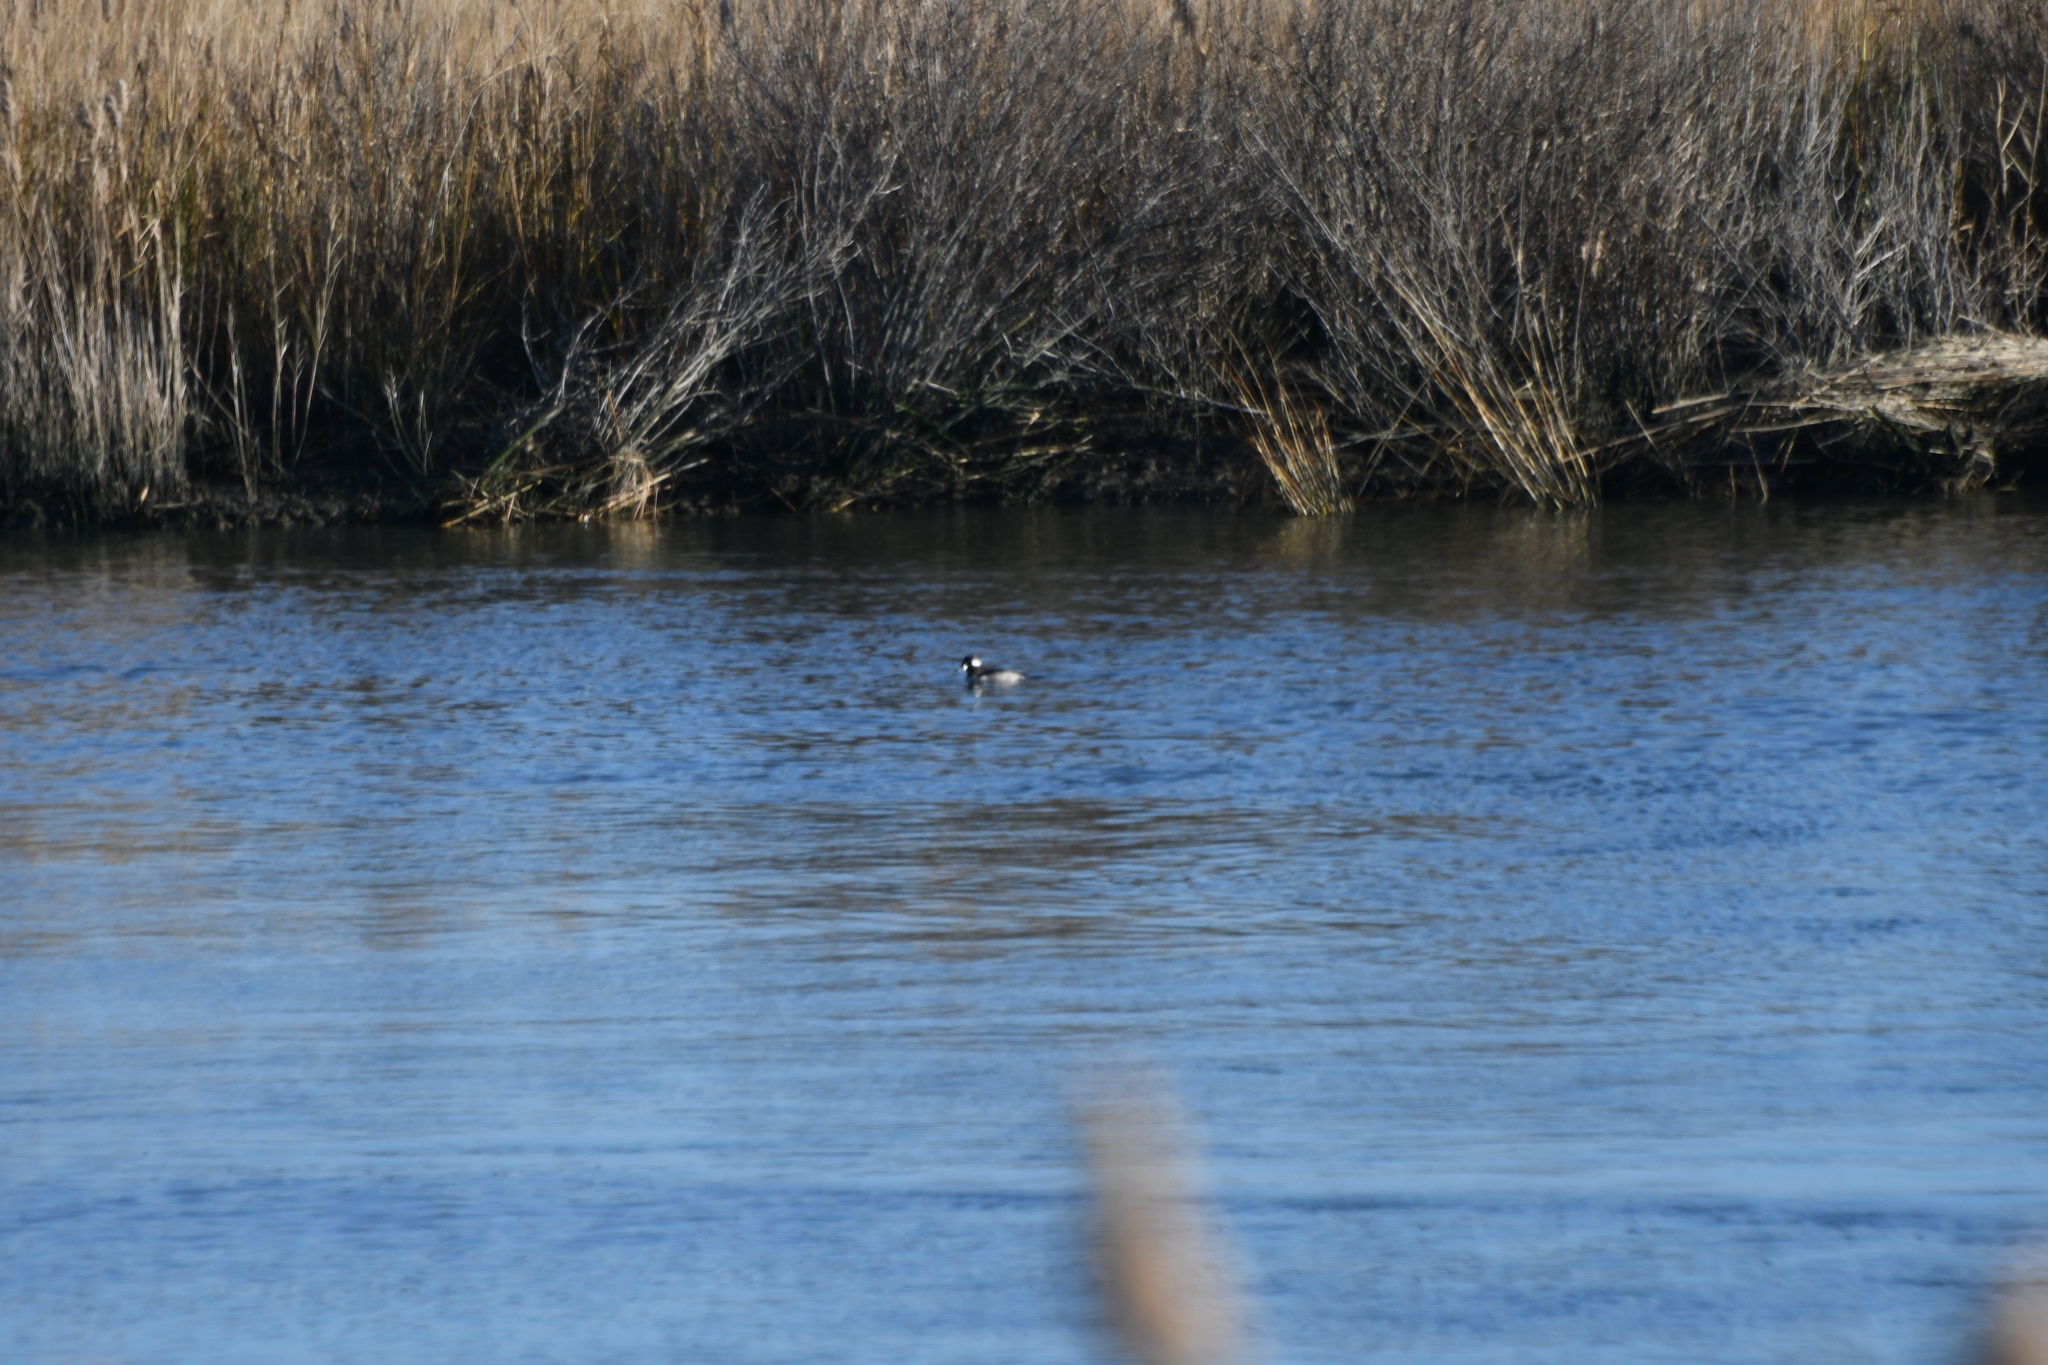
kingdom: Animalia
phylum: Chordata
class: Aves
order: Anseriformes
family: Anatidae
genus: Bucephala
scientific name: Bucephala albeola
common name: Bufflehead
